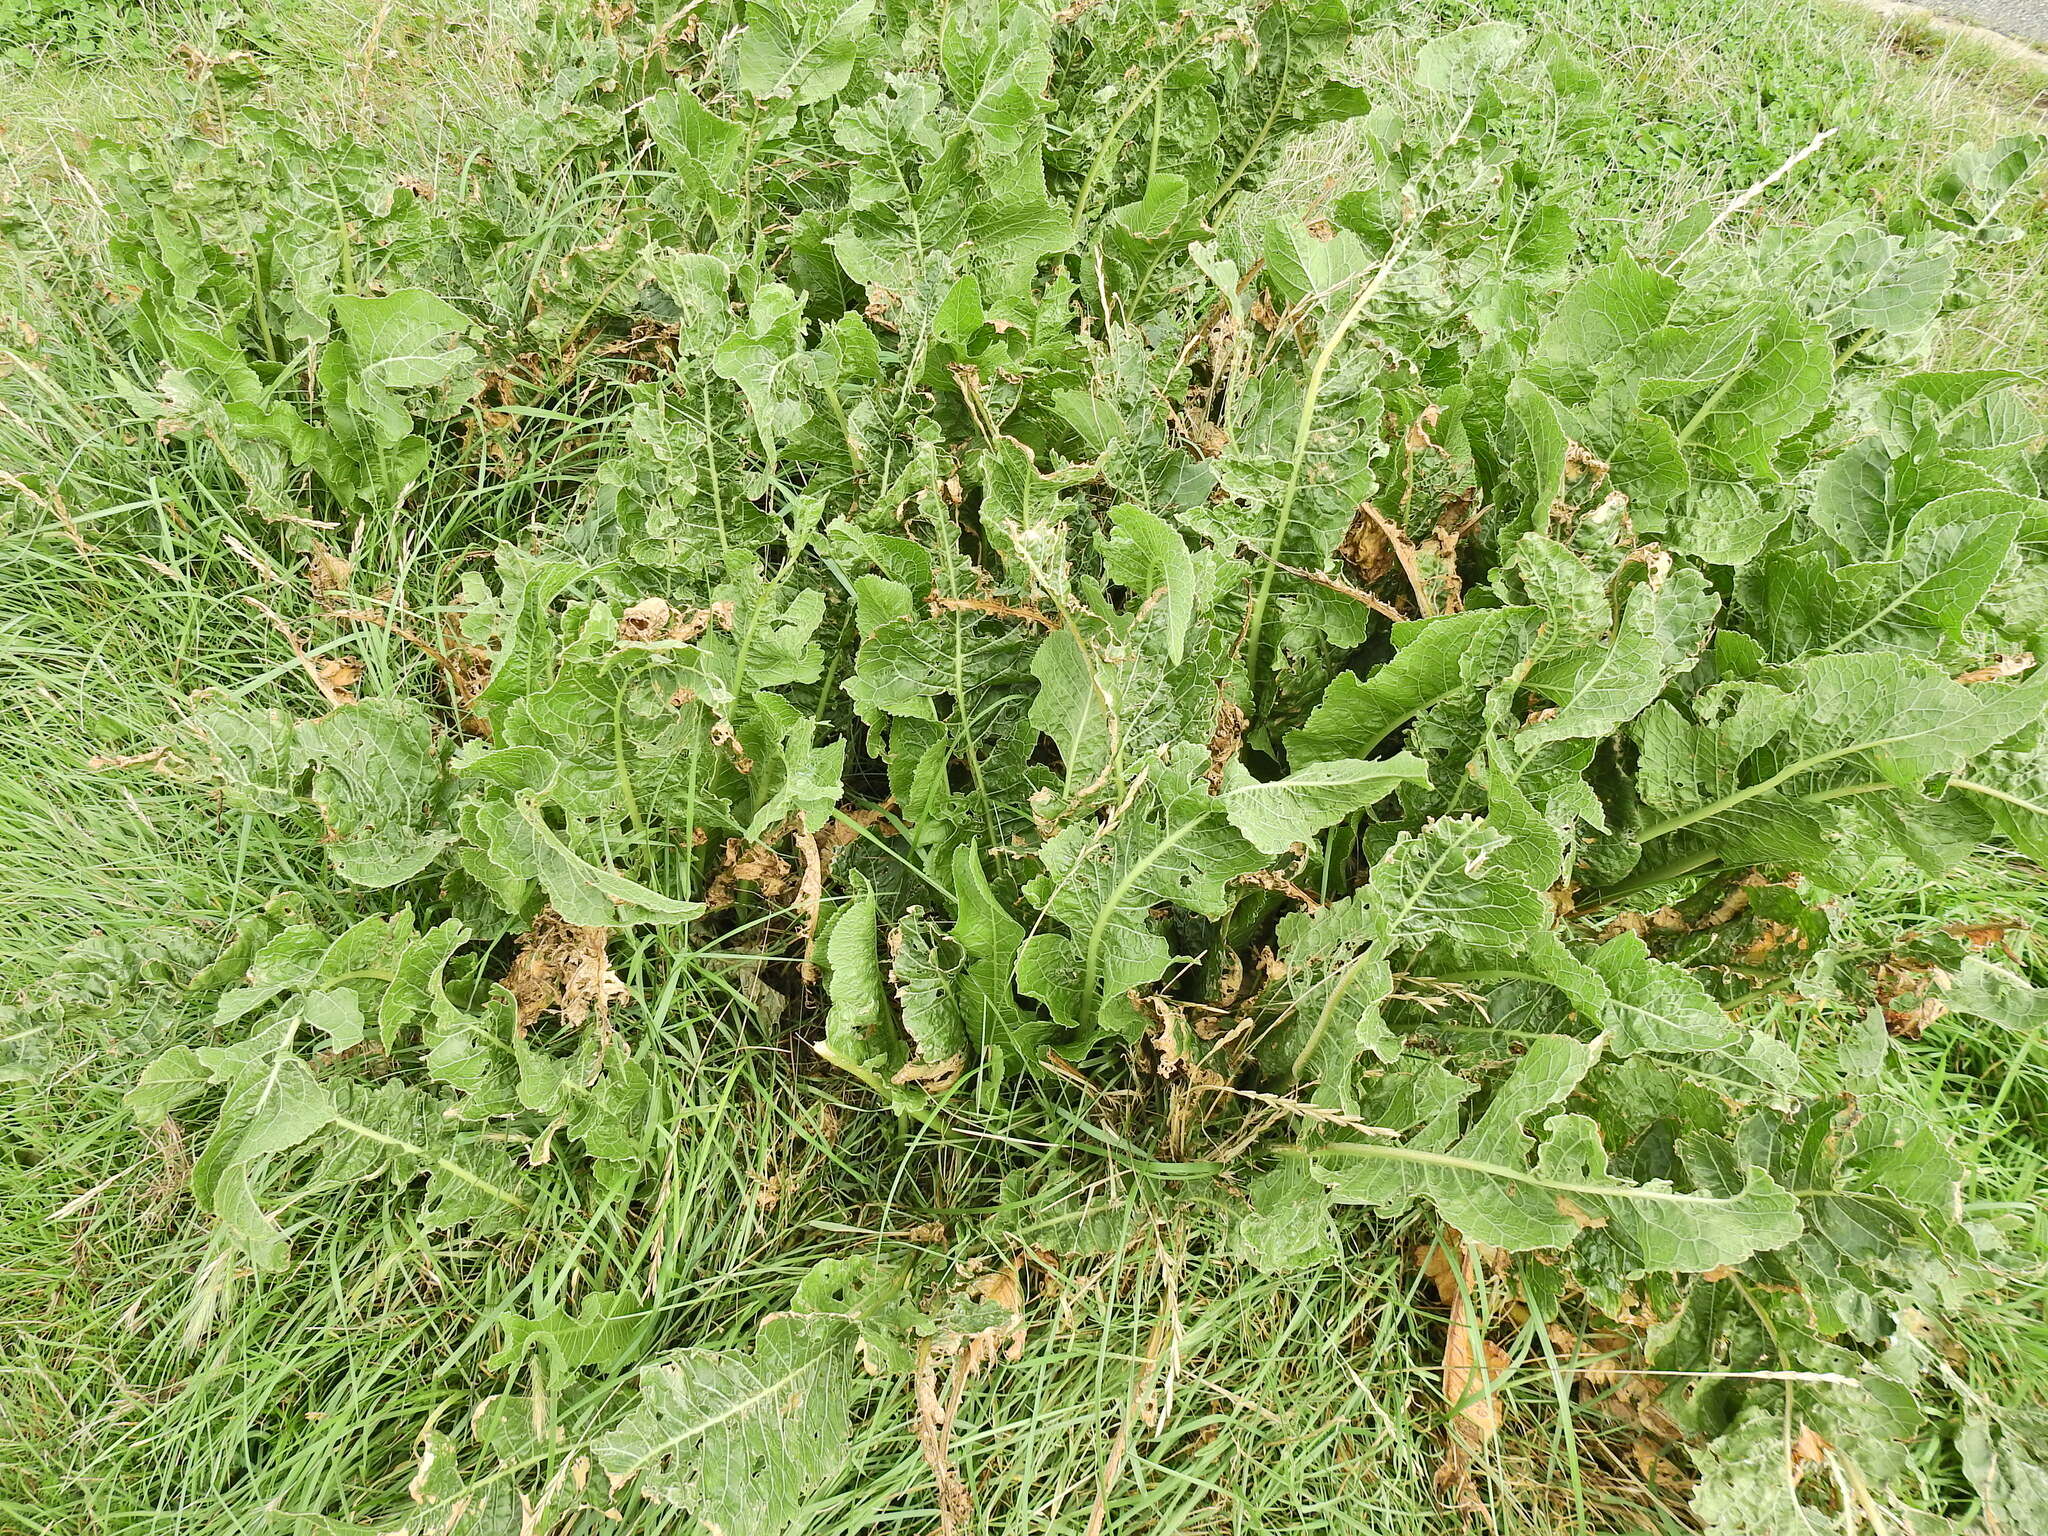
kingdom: Plantae
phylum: Tracheophyta
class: Magnoliopsida
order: Brassicales
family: Brassicaceae
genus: Armoracia
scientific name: Armoracia rusticana
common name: Horseradish
